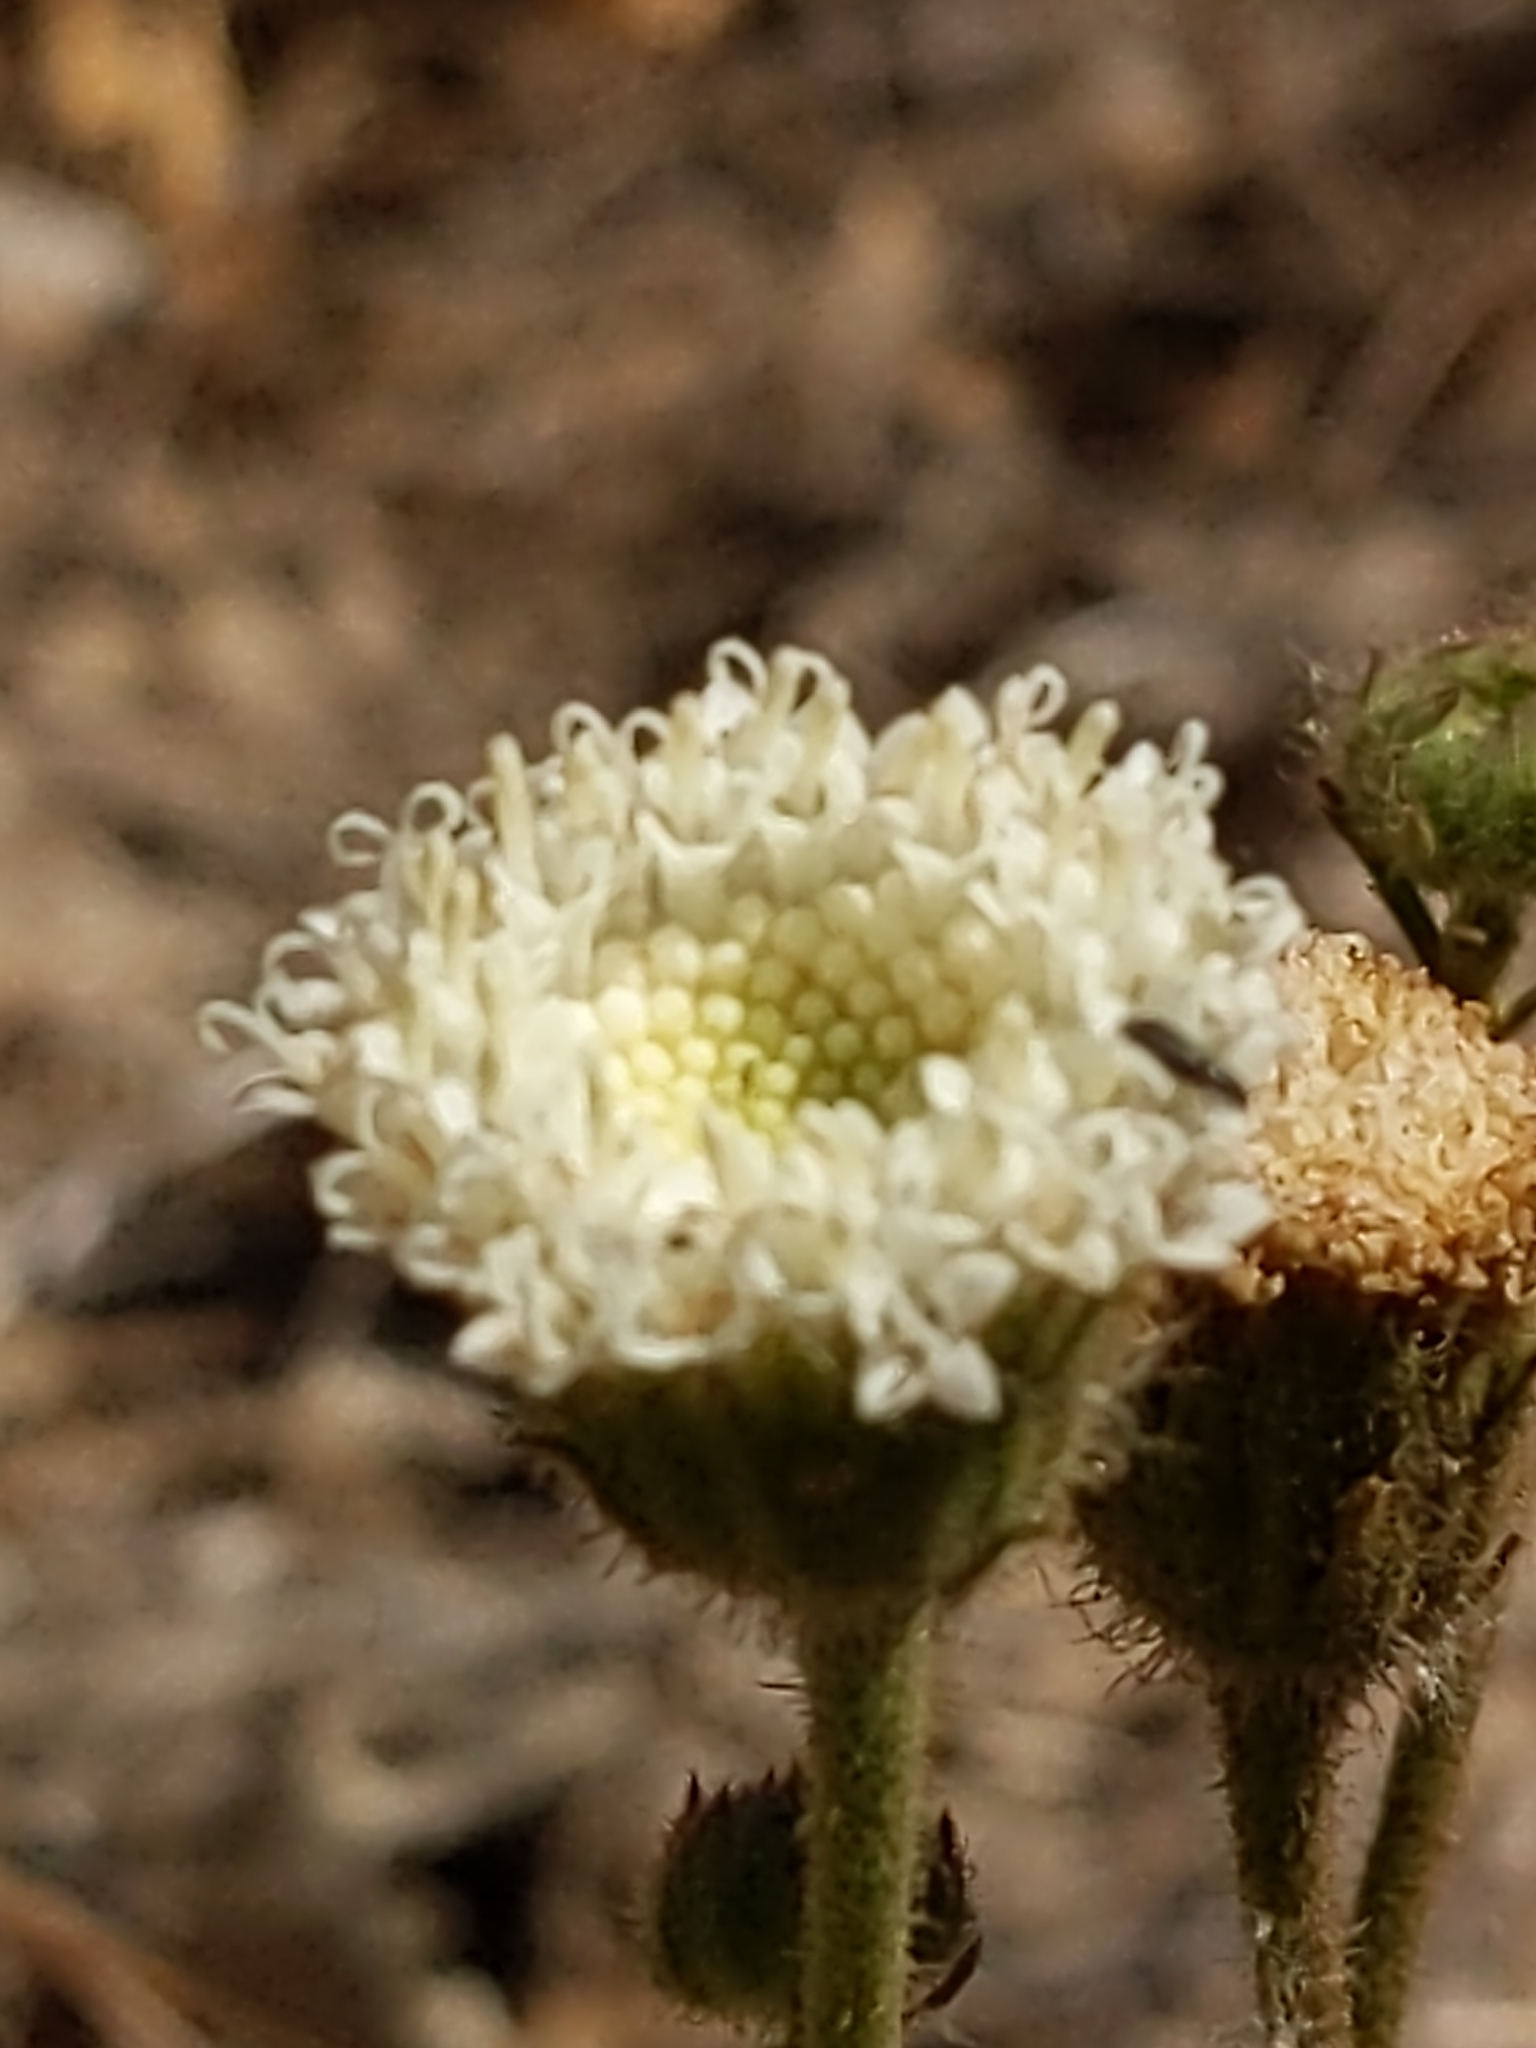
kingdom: Plantae
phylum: Tracheophyta
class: Magnoliopsida
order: Asterales
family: Asteraceae
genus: Chaenactis
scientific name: Chaenactis artemisiifolia
